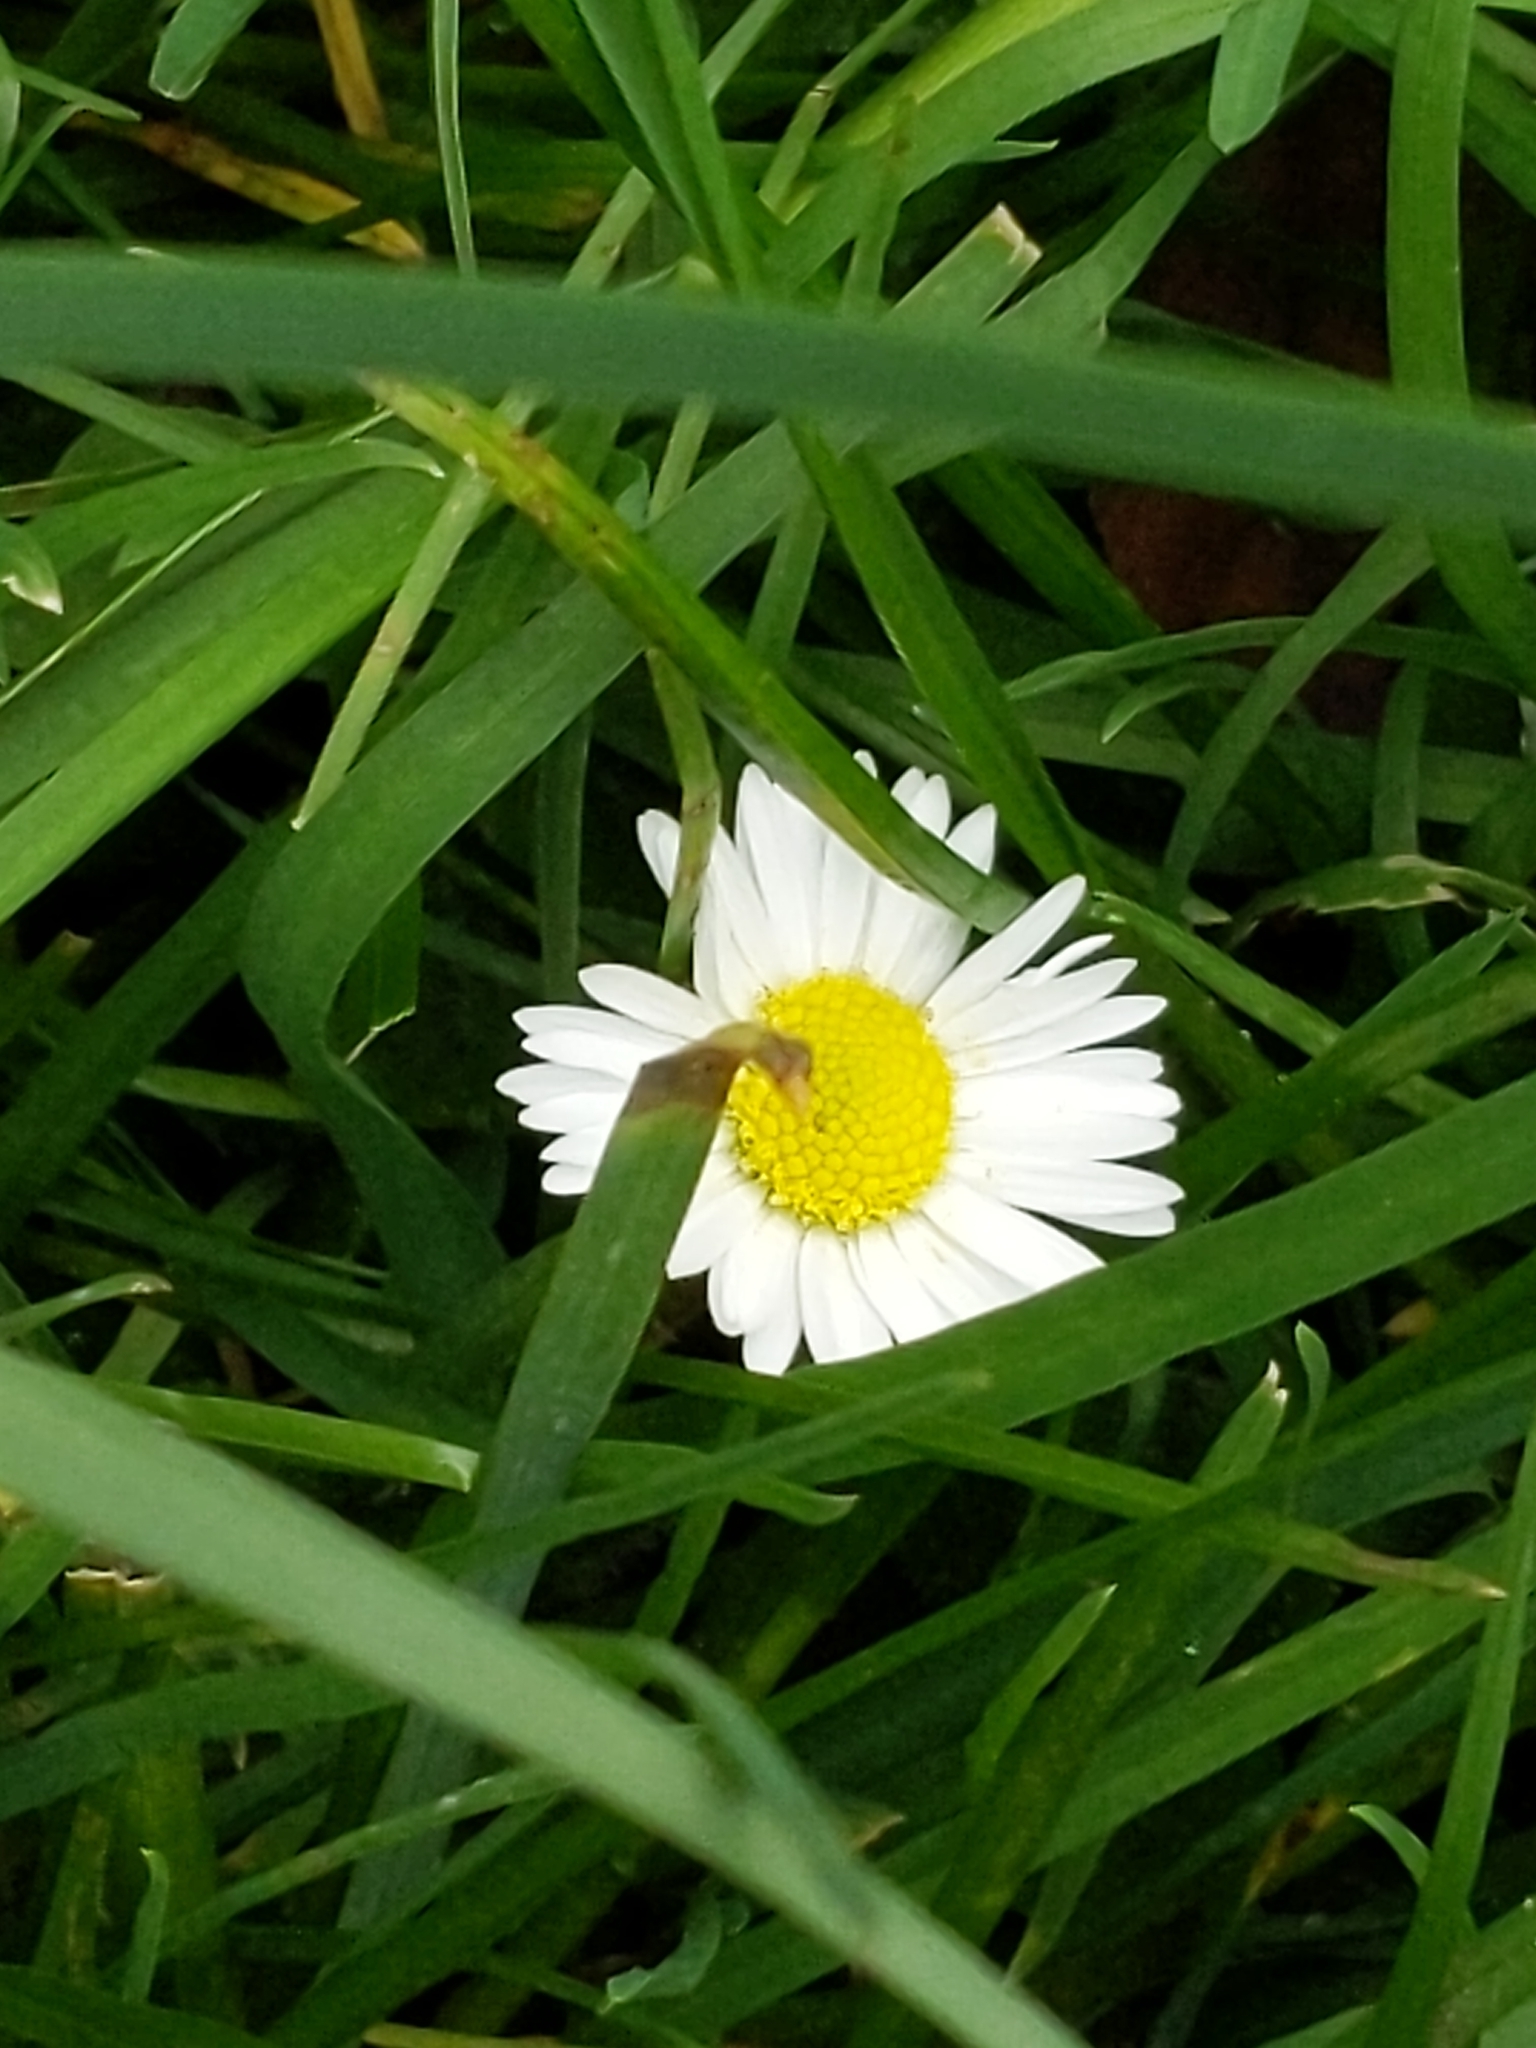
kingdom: Plantae
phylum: Tracheophyta
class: Magnoliopsida
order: Asterales
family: Asteraceae
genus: Bellis
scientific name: Bellis perennis
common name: Lawndaisy
